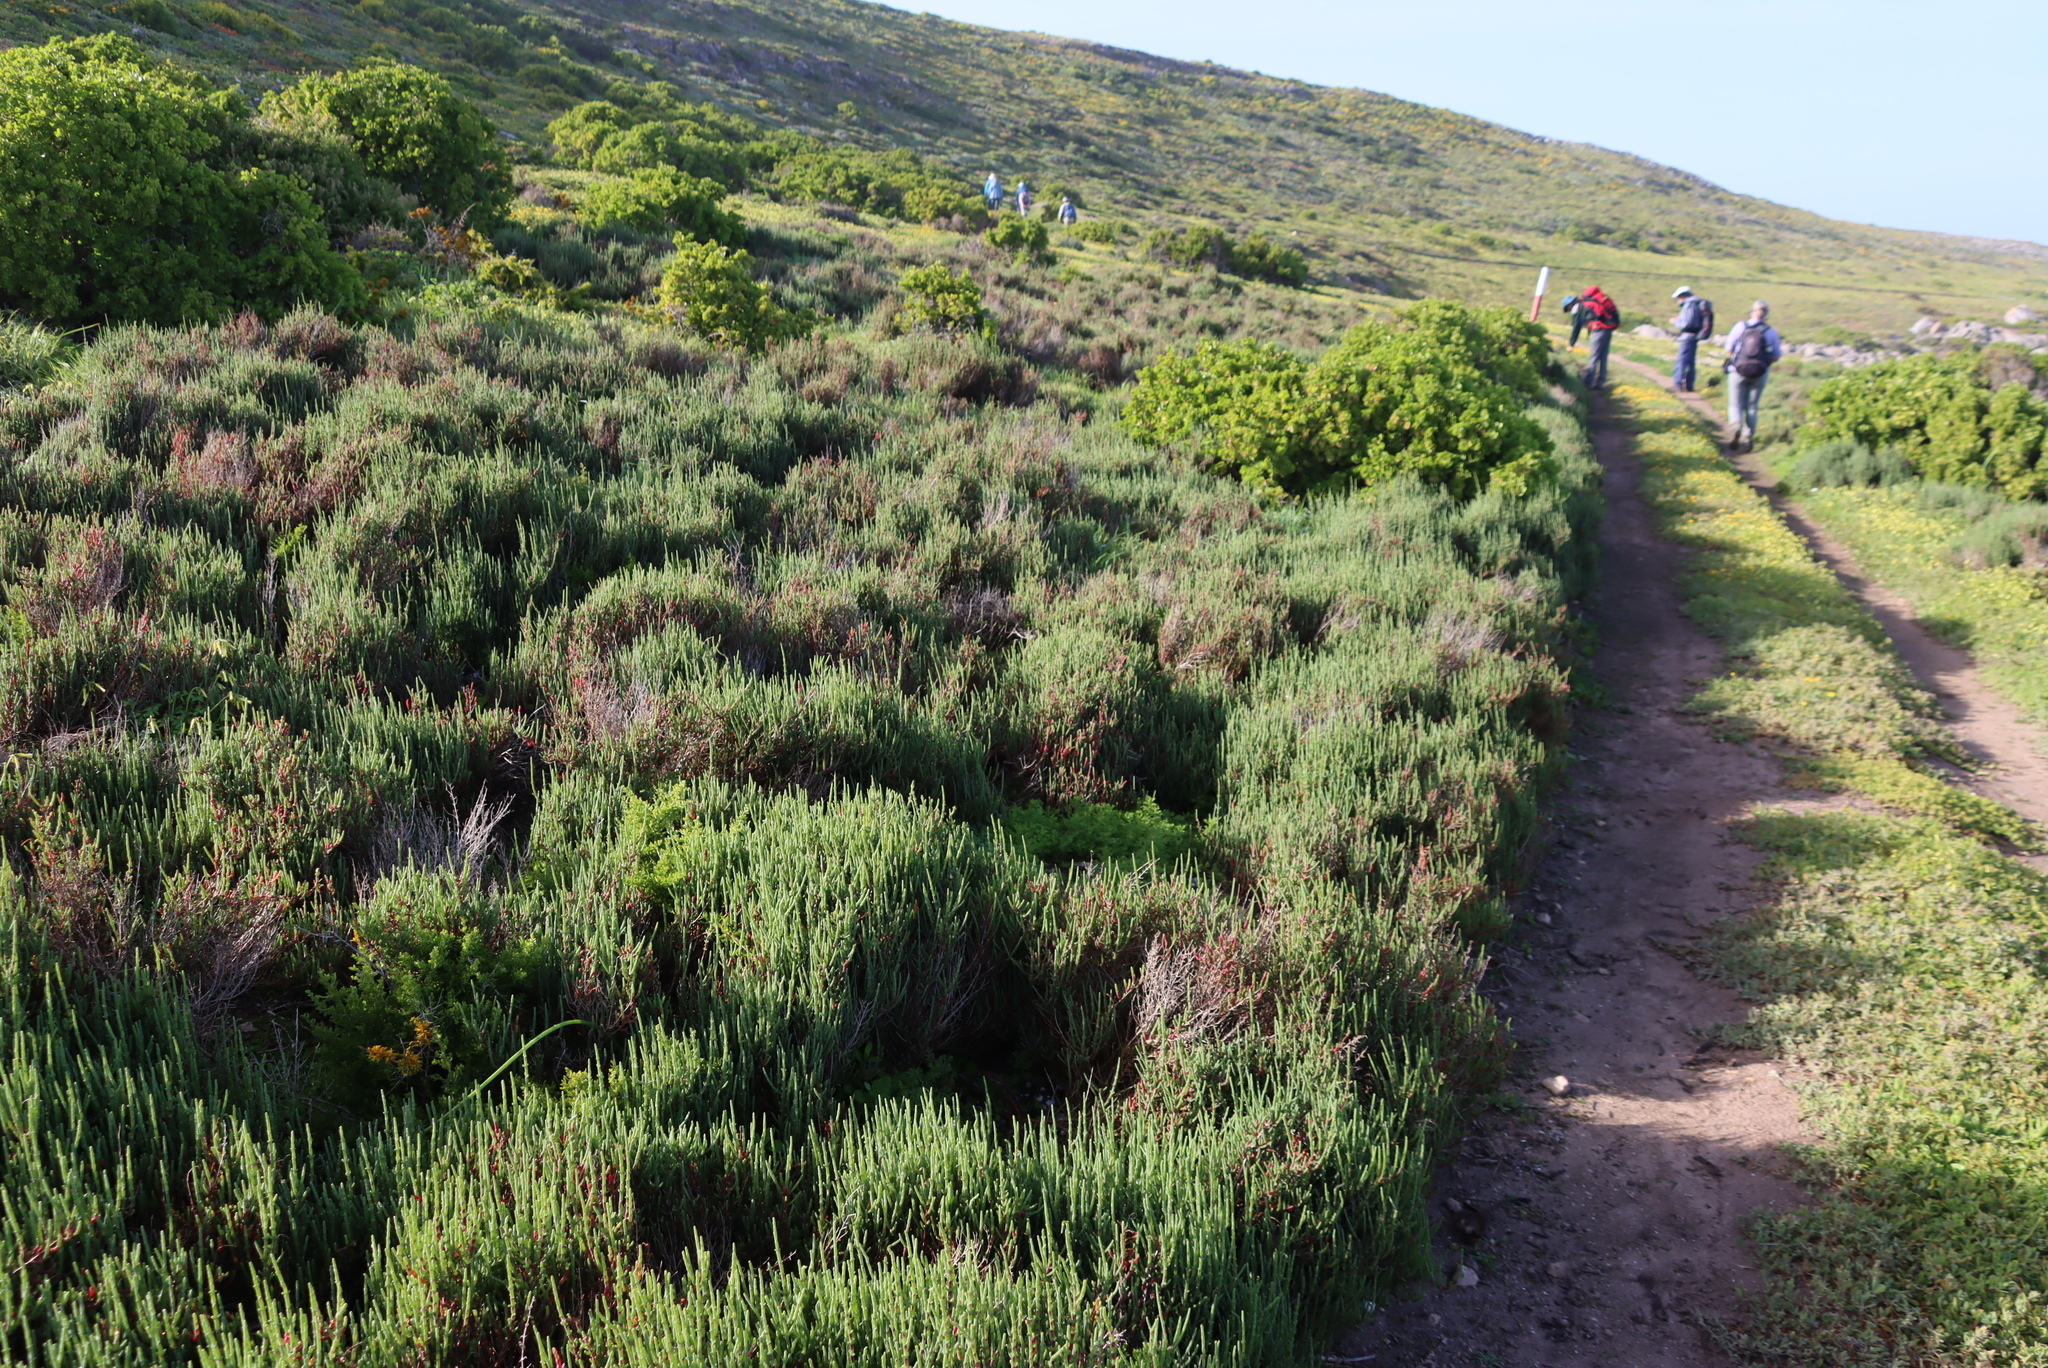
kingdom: Plantae
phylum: Tracheophyta
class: Magnoliopsida
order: Caryophyllales
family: Amaranthaceae
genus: Salicornia
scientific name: Salicornia pillansii
